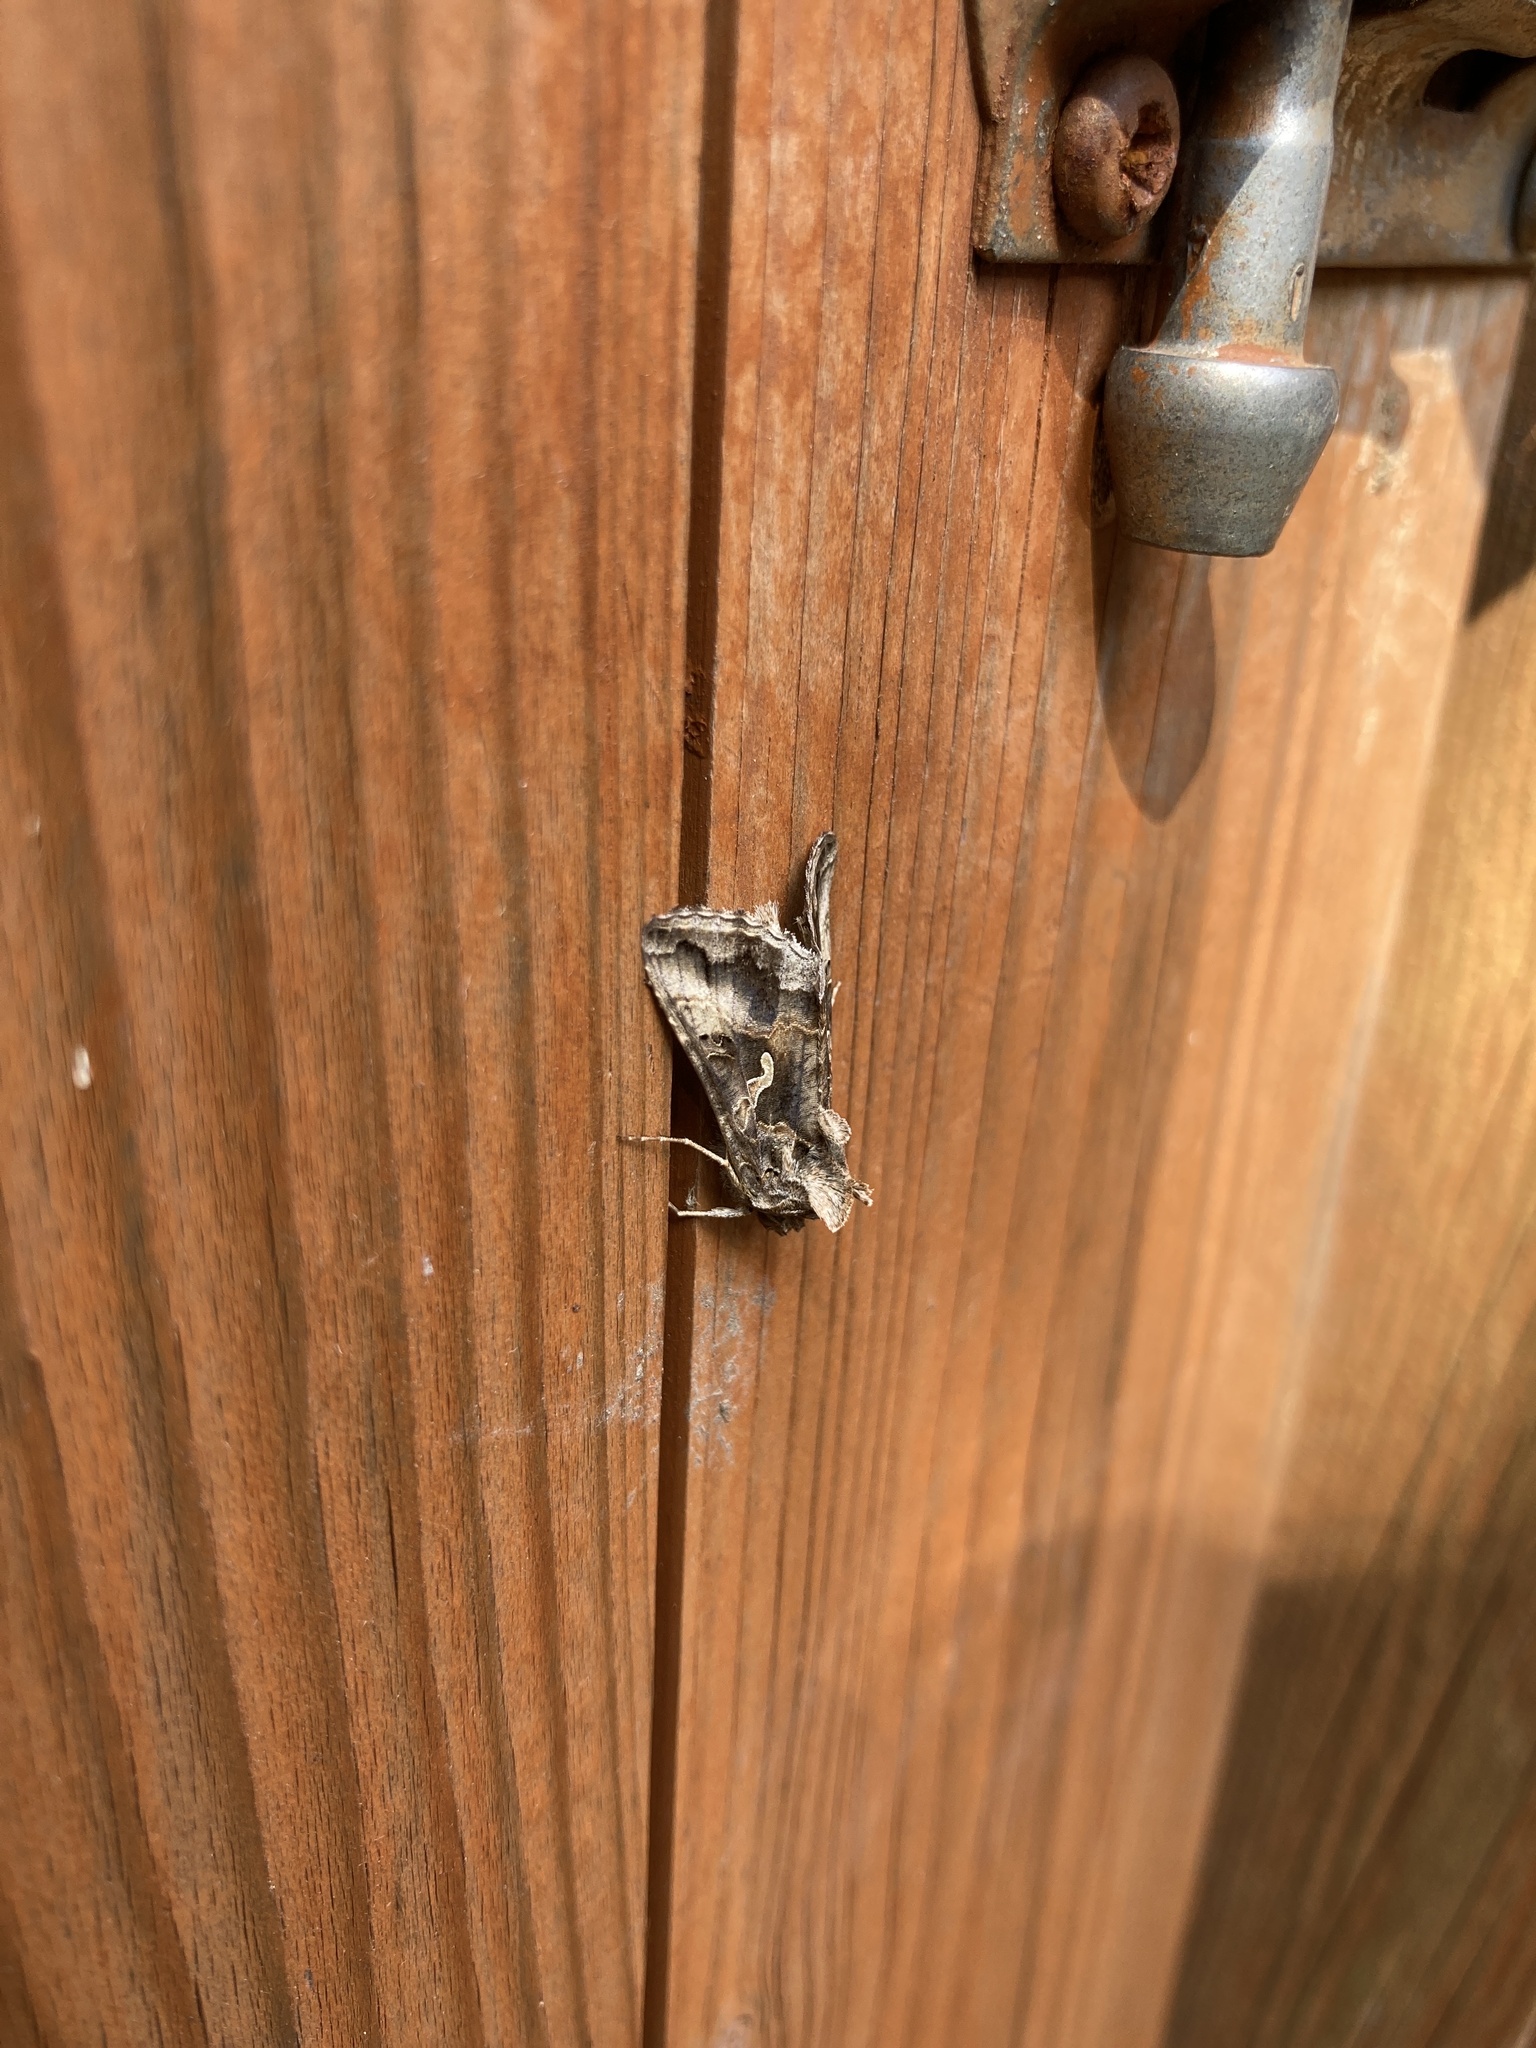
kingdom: Animalia
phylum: Arthropoda
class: Insecta
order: Lepidoptera
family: Noctuidae
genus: Autographa
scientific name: Autographa gamma
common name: Silver y
